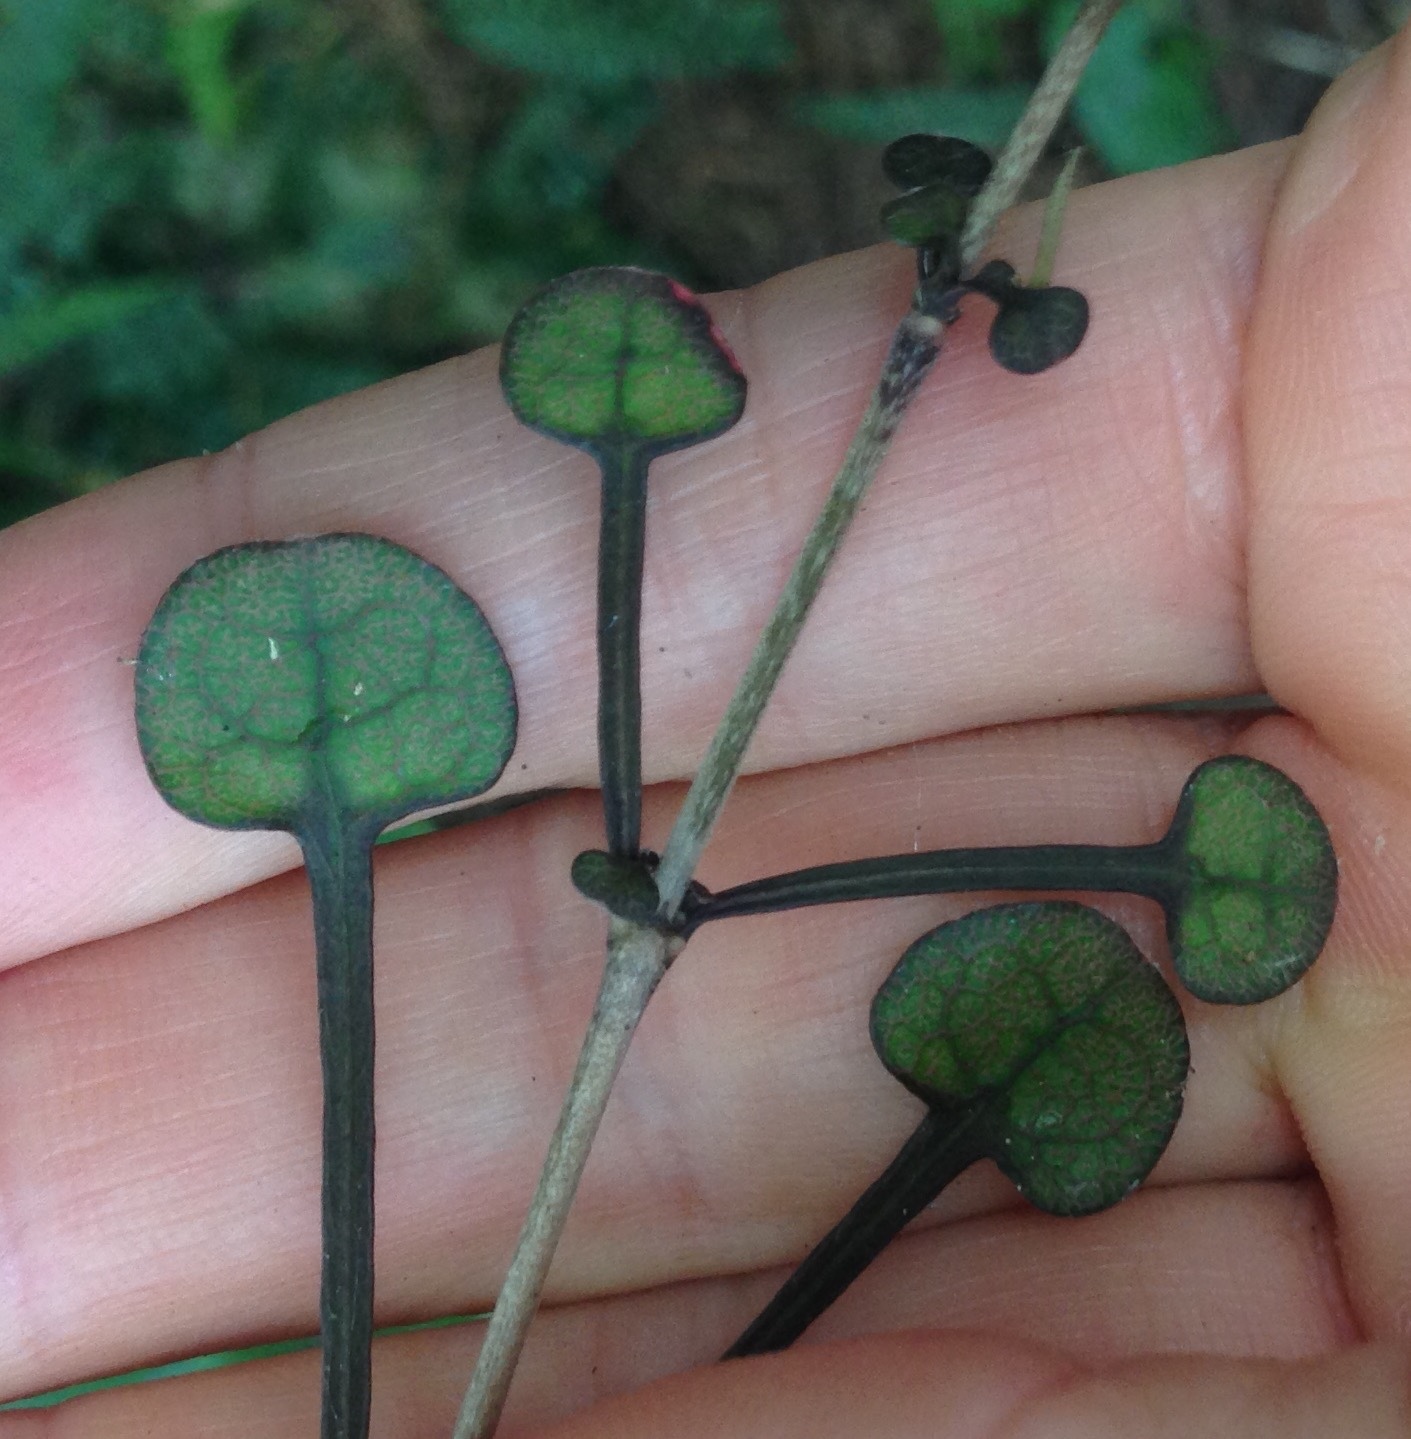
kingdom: Plantae
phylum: Tracheophyta
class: Magnoliopsida
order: Gentianales
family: Rubiaceae
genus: Coprosma
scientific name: Coprosma spathulata
